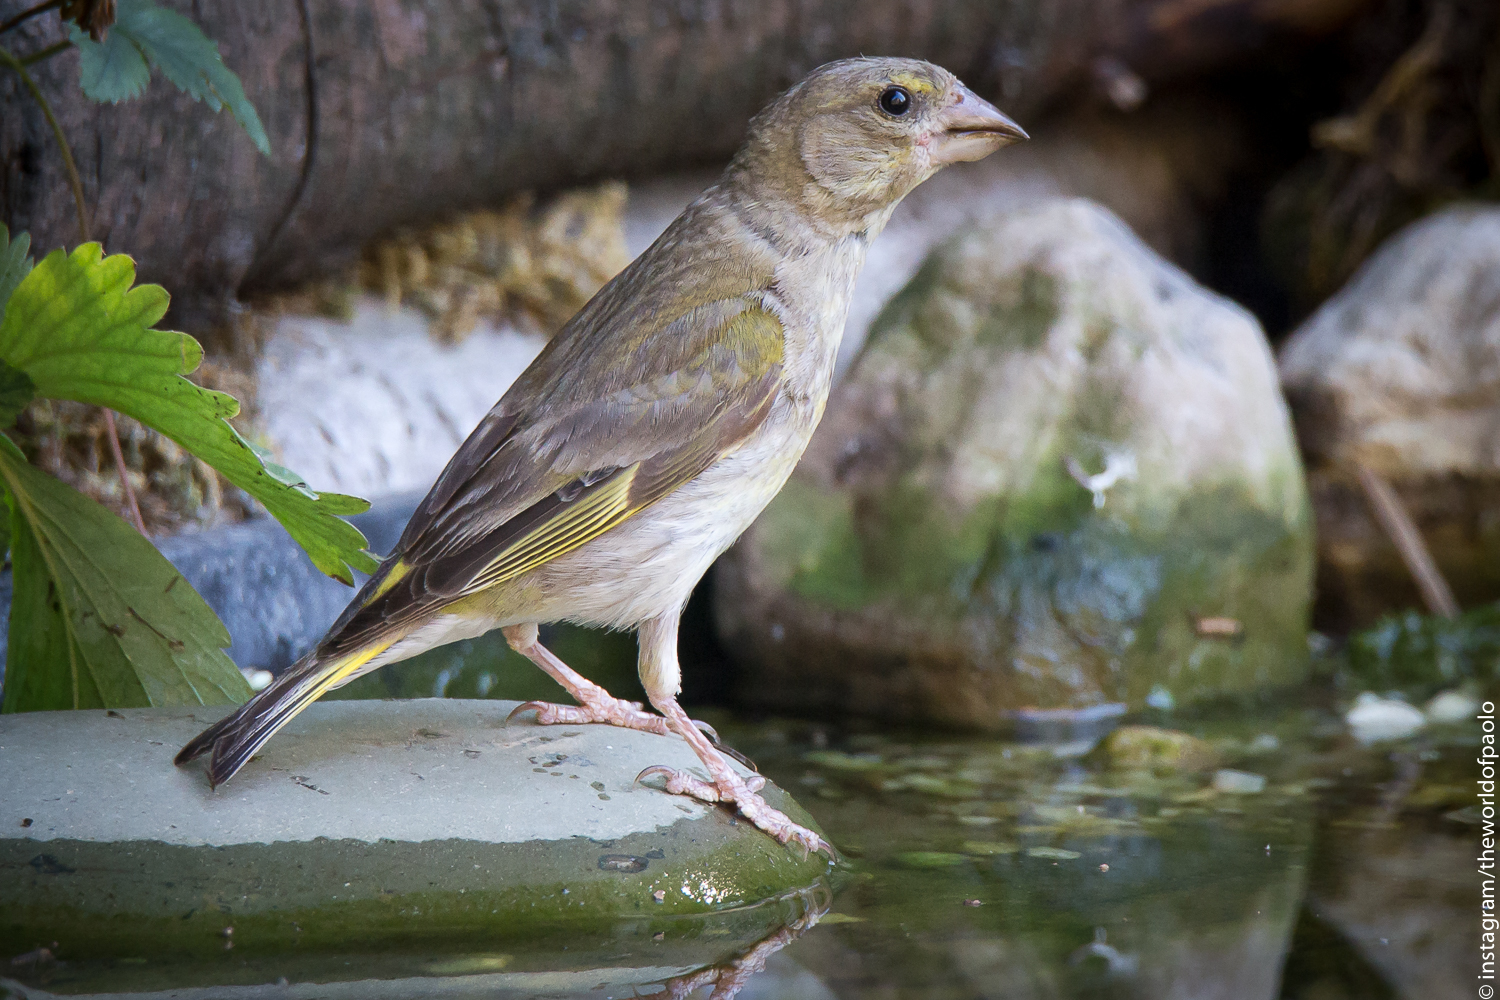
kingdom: Plantae
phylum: Tracheophyta
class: Liliopsida
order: Poales
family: Poaceae
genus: Chloris
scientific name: Chloris chloris
